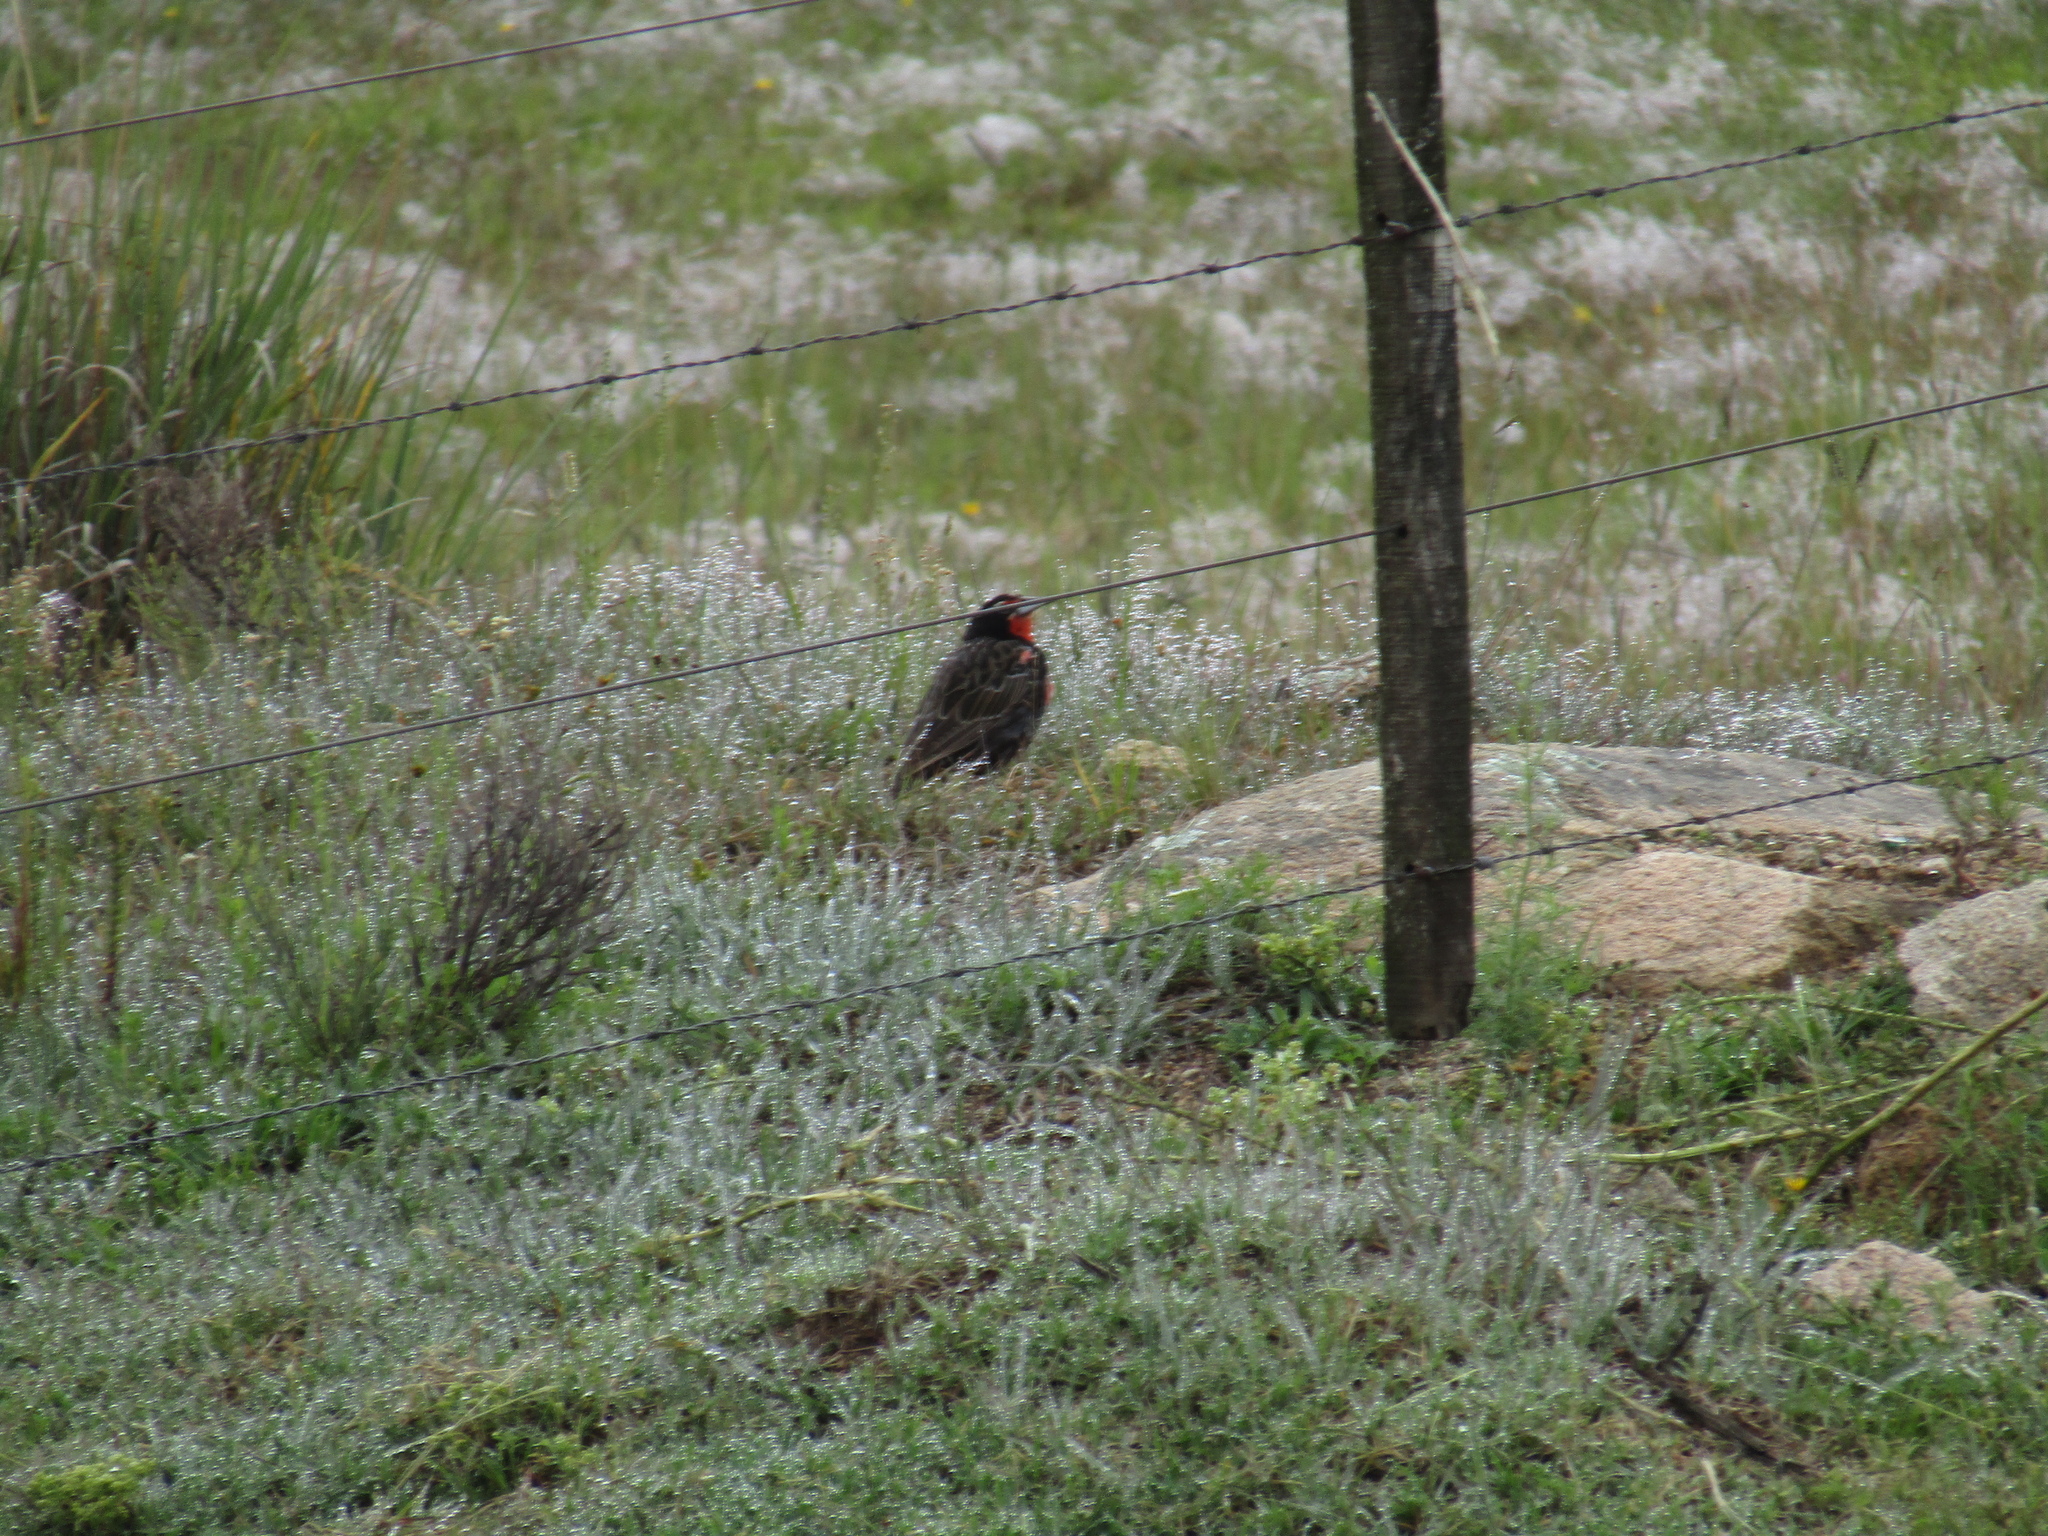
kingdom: Animalia
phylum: Chordata
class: Aves
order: Passeriformes
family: Icteridae
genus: Sturnella
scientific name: Sturnella loyca
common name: Long-tailed meadowlark
